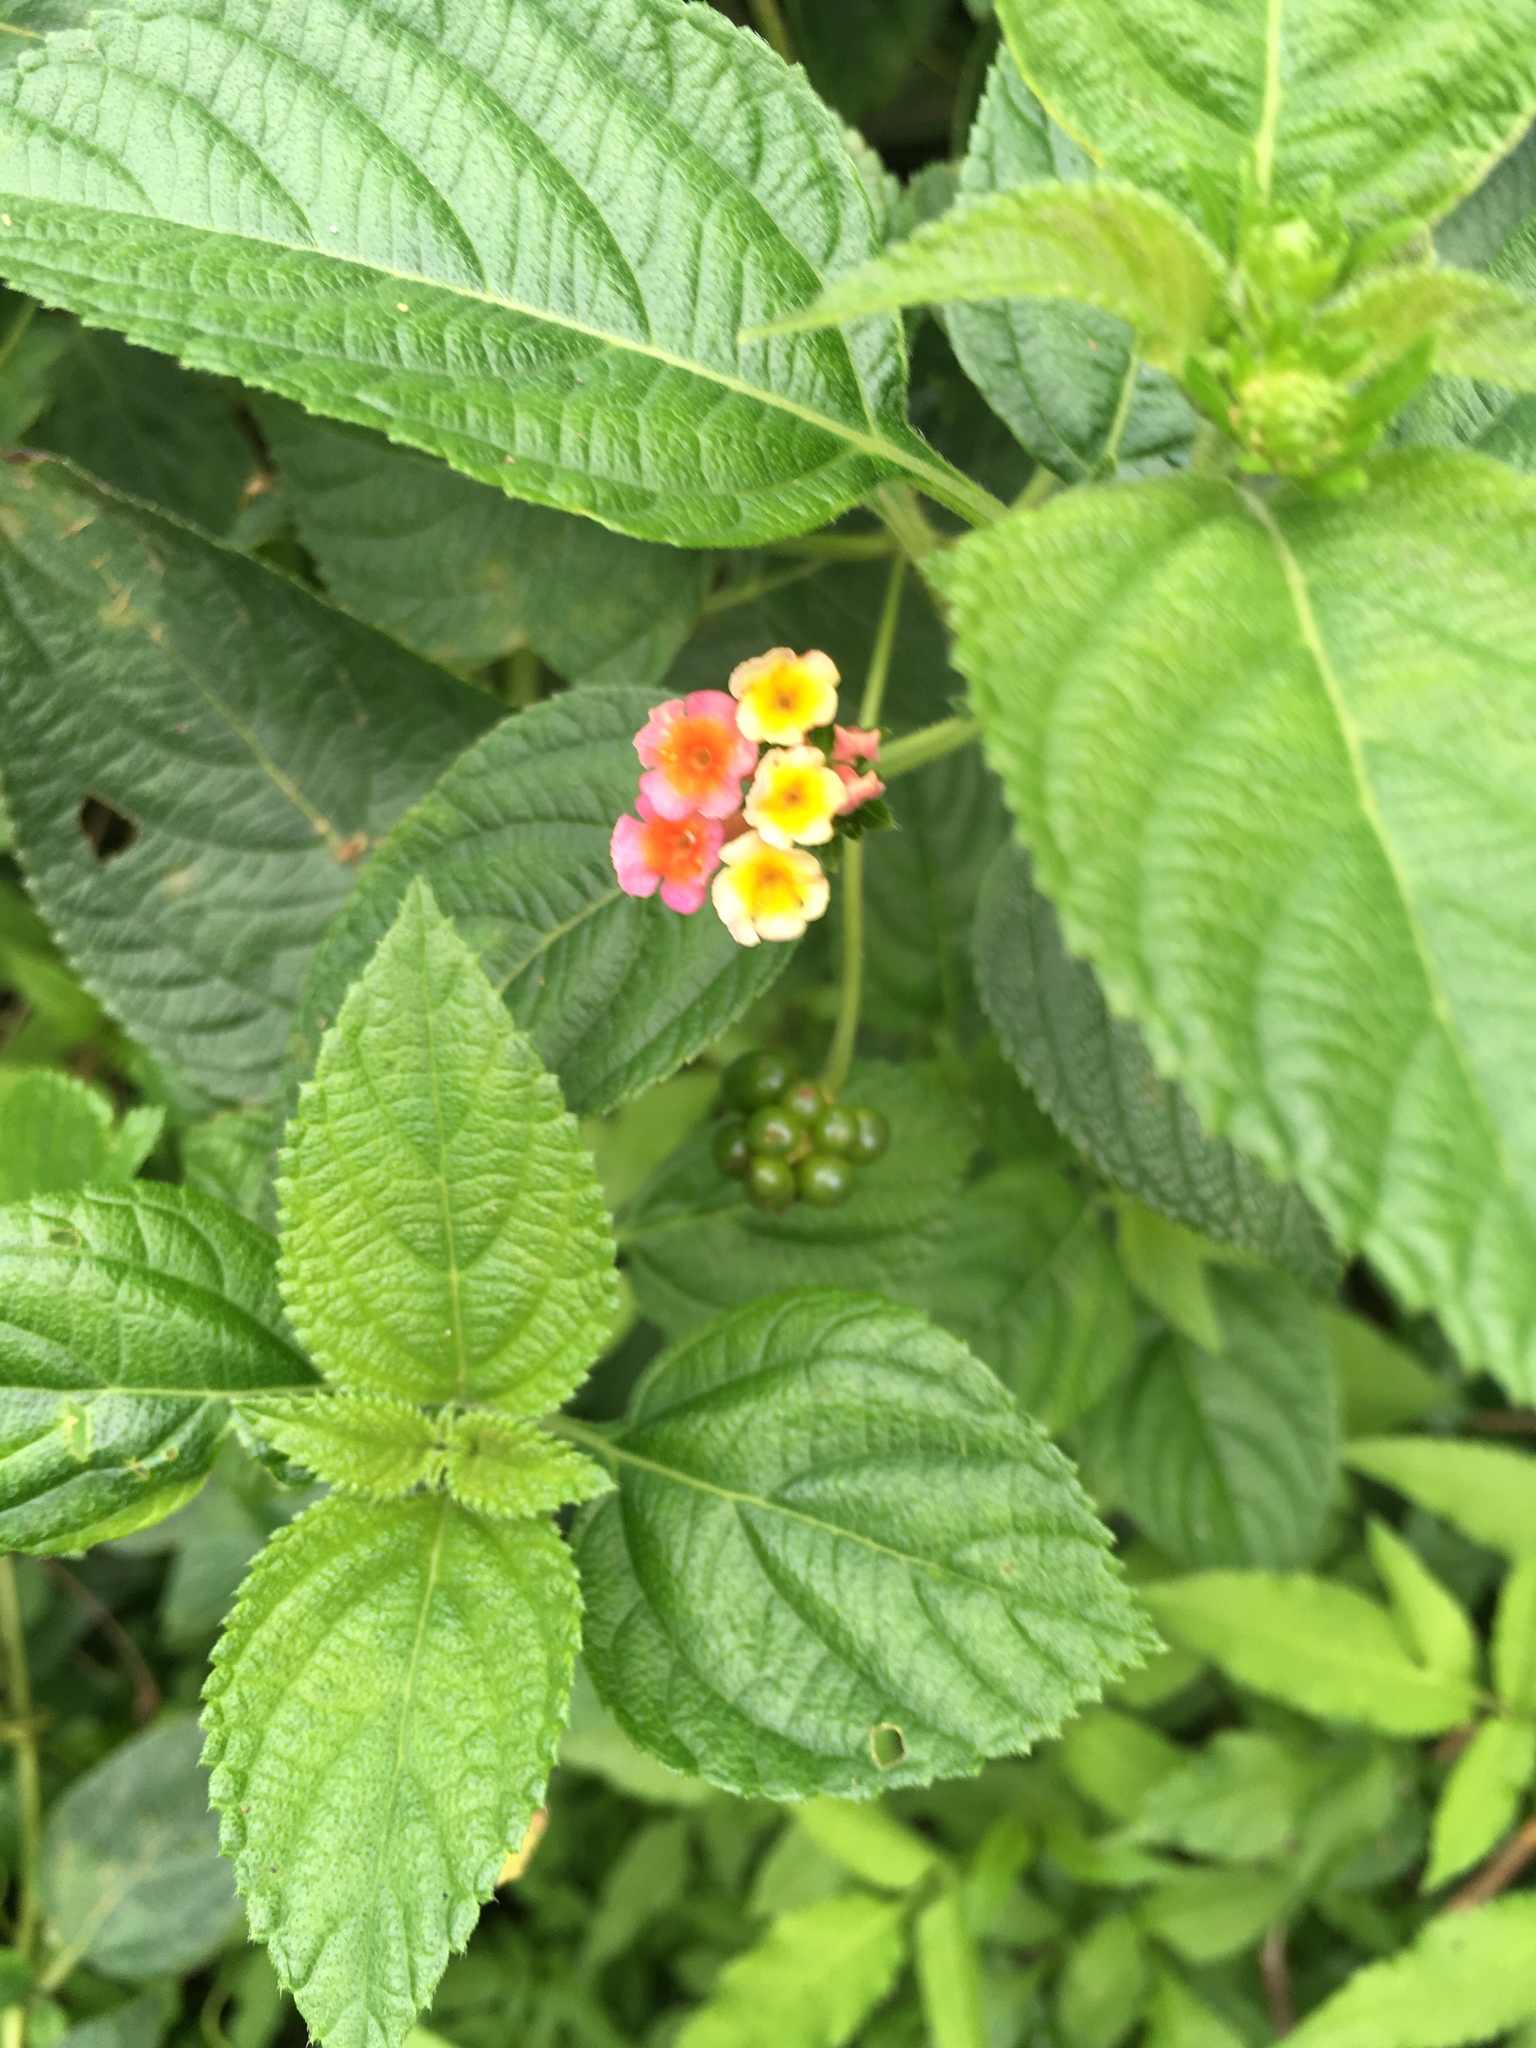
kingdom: Plantae
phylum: Tracheophyta
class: Magnoliopsida
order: Lamiales
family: Verbenaceae
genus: Lantana
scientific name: Lantana camara
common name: Lantana
